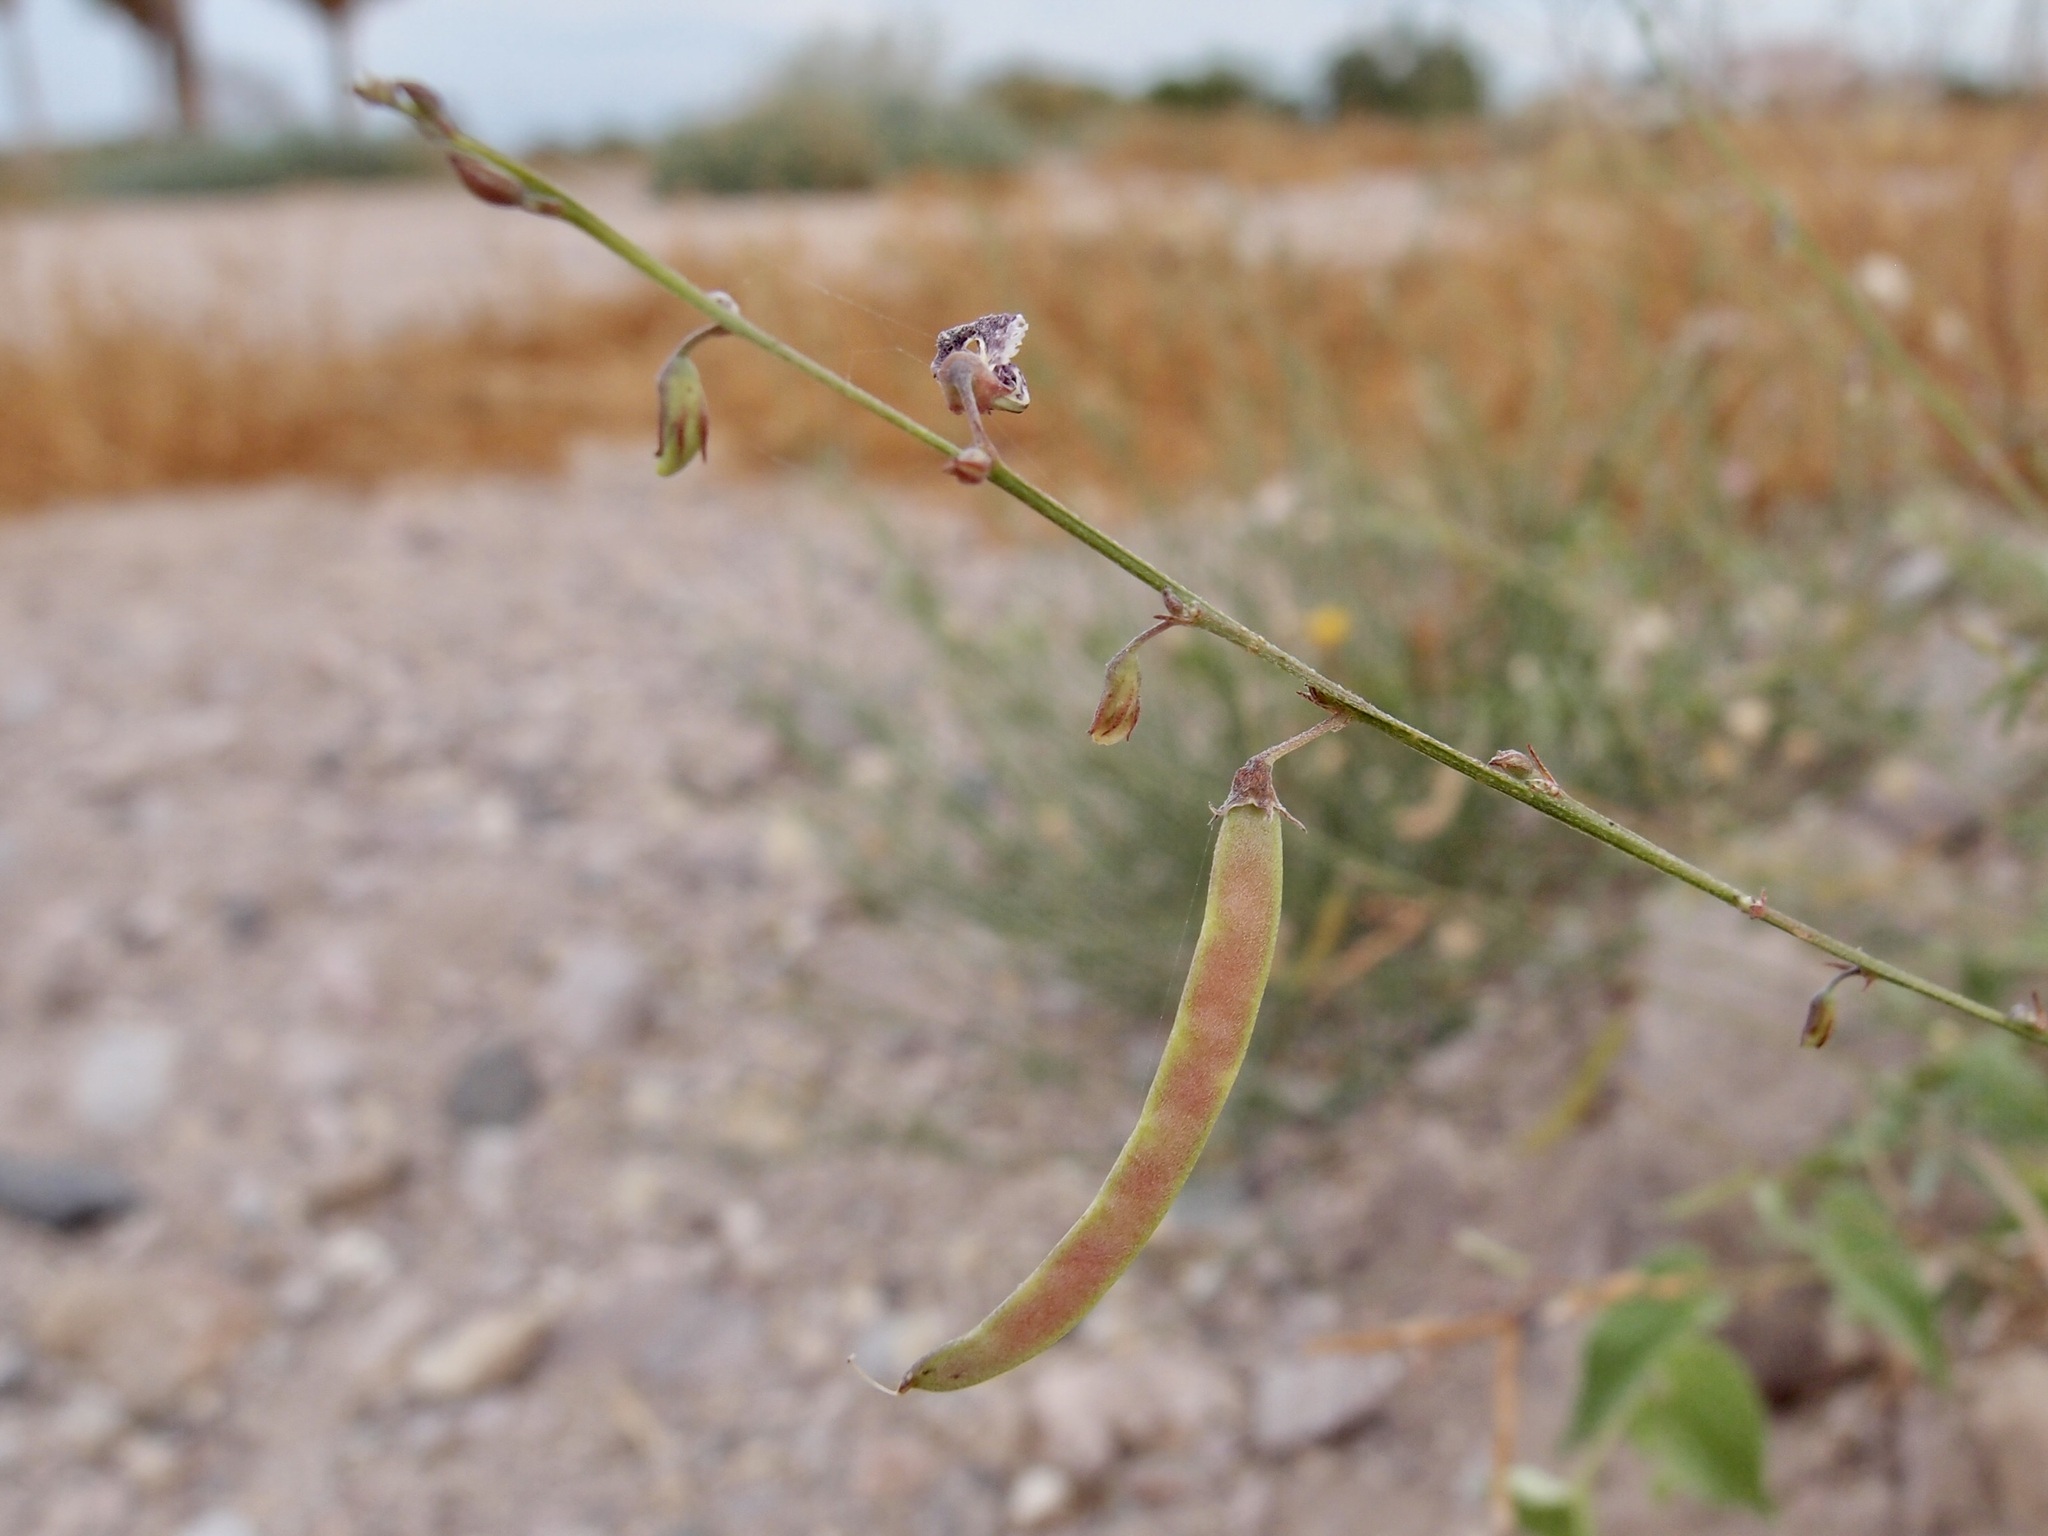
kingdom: Plantae
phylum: Tracheophyta
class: Magnoliopsida
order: Fabales
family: Fabaceae
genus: Tephrosia
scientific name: Tephrosia vicioides
